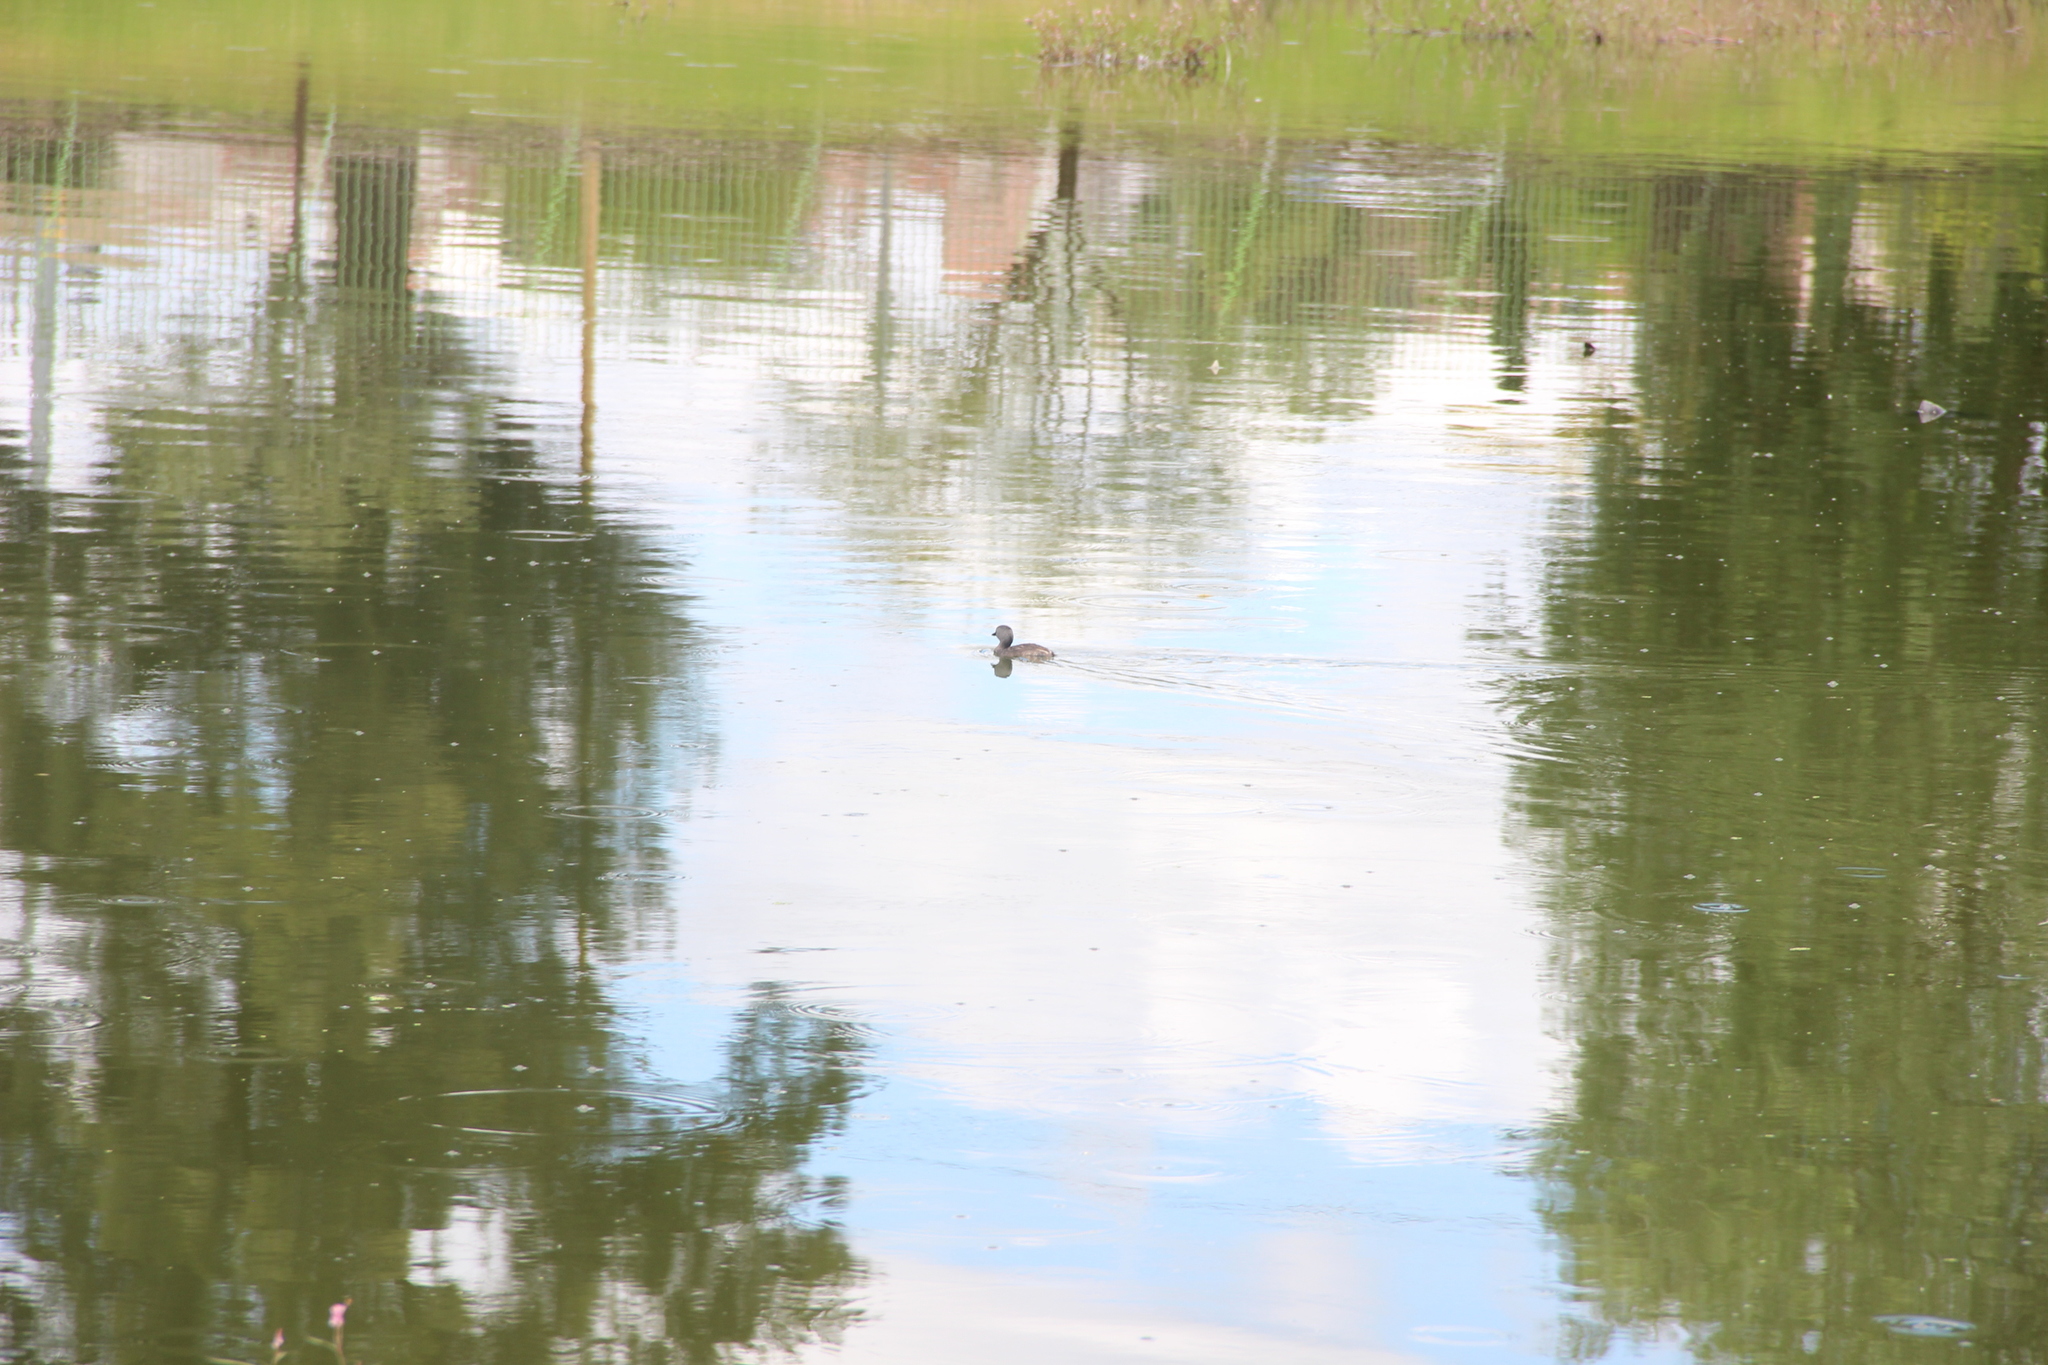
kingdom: Animalia
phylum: Chordata
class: Aves
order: Podicipediformes
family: Podicipedidae
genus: Tachybaptus
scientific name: Tachybaptus dominicus
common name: Least grebe
